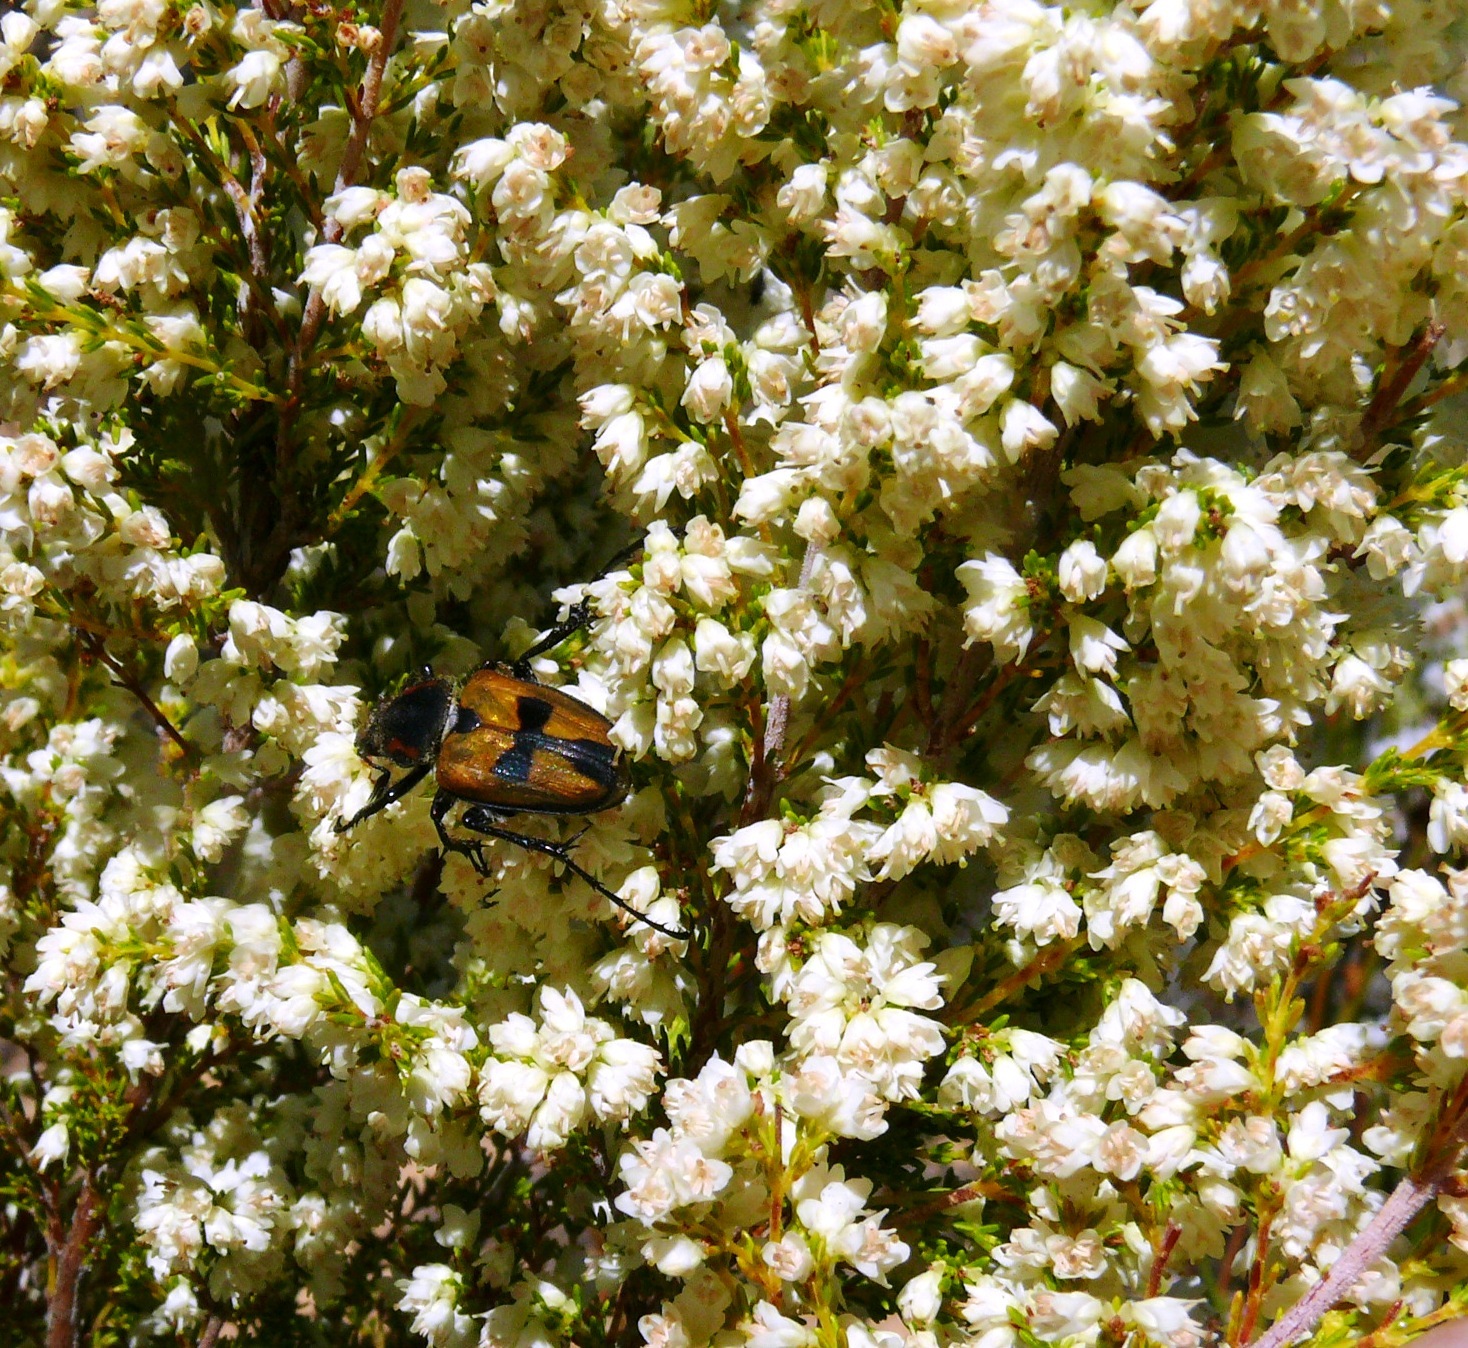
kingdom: Plantae
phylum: Tracheophyta
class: Magnoliopsida
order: Ericales
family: Ericaceae
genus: Erica
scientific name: Erica leucanthera
